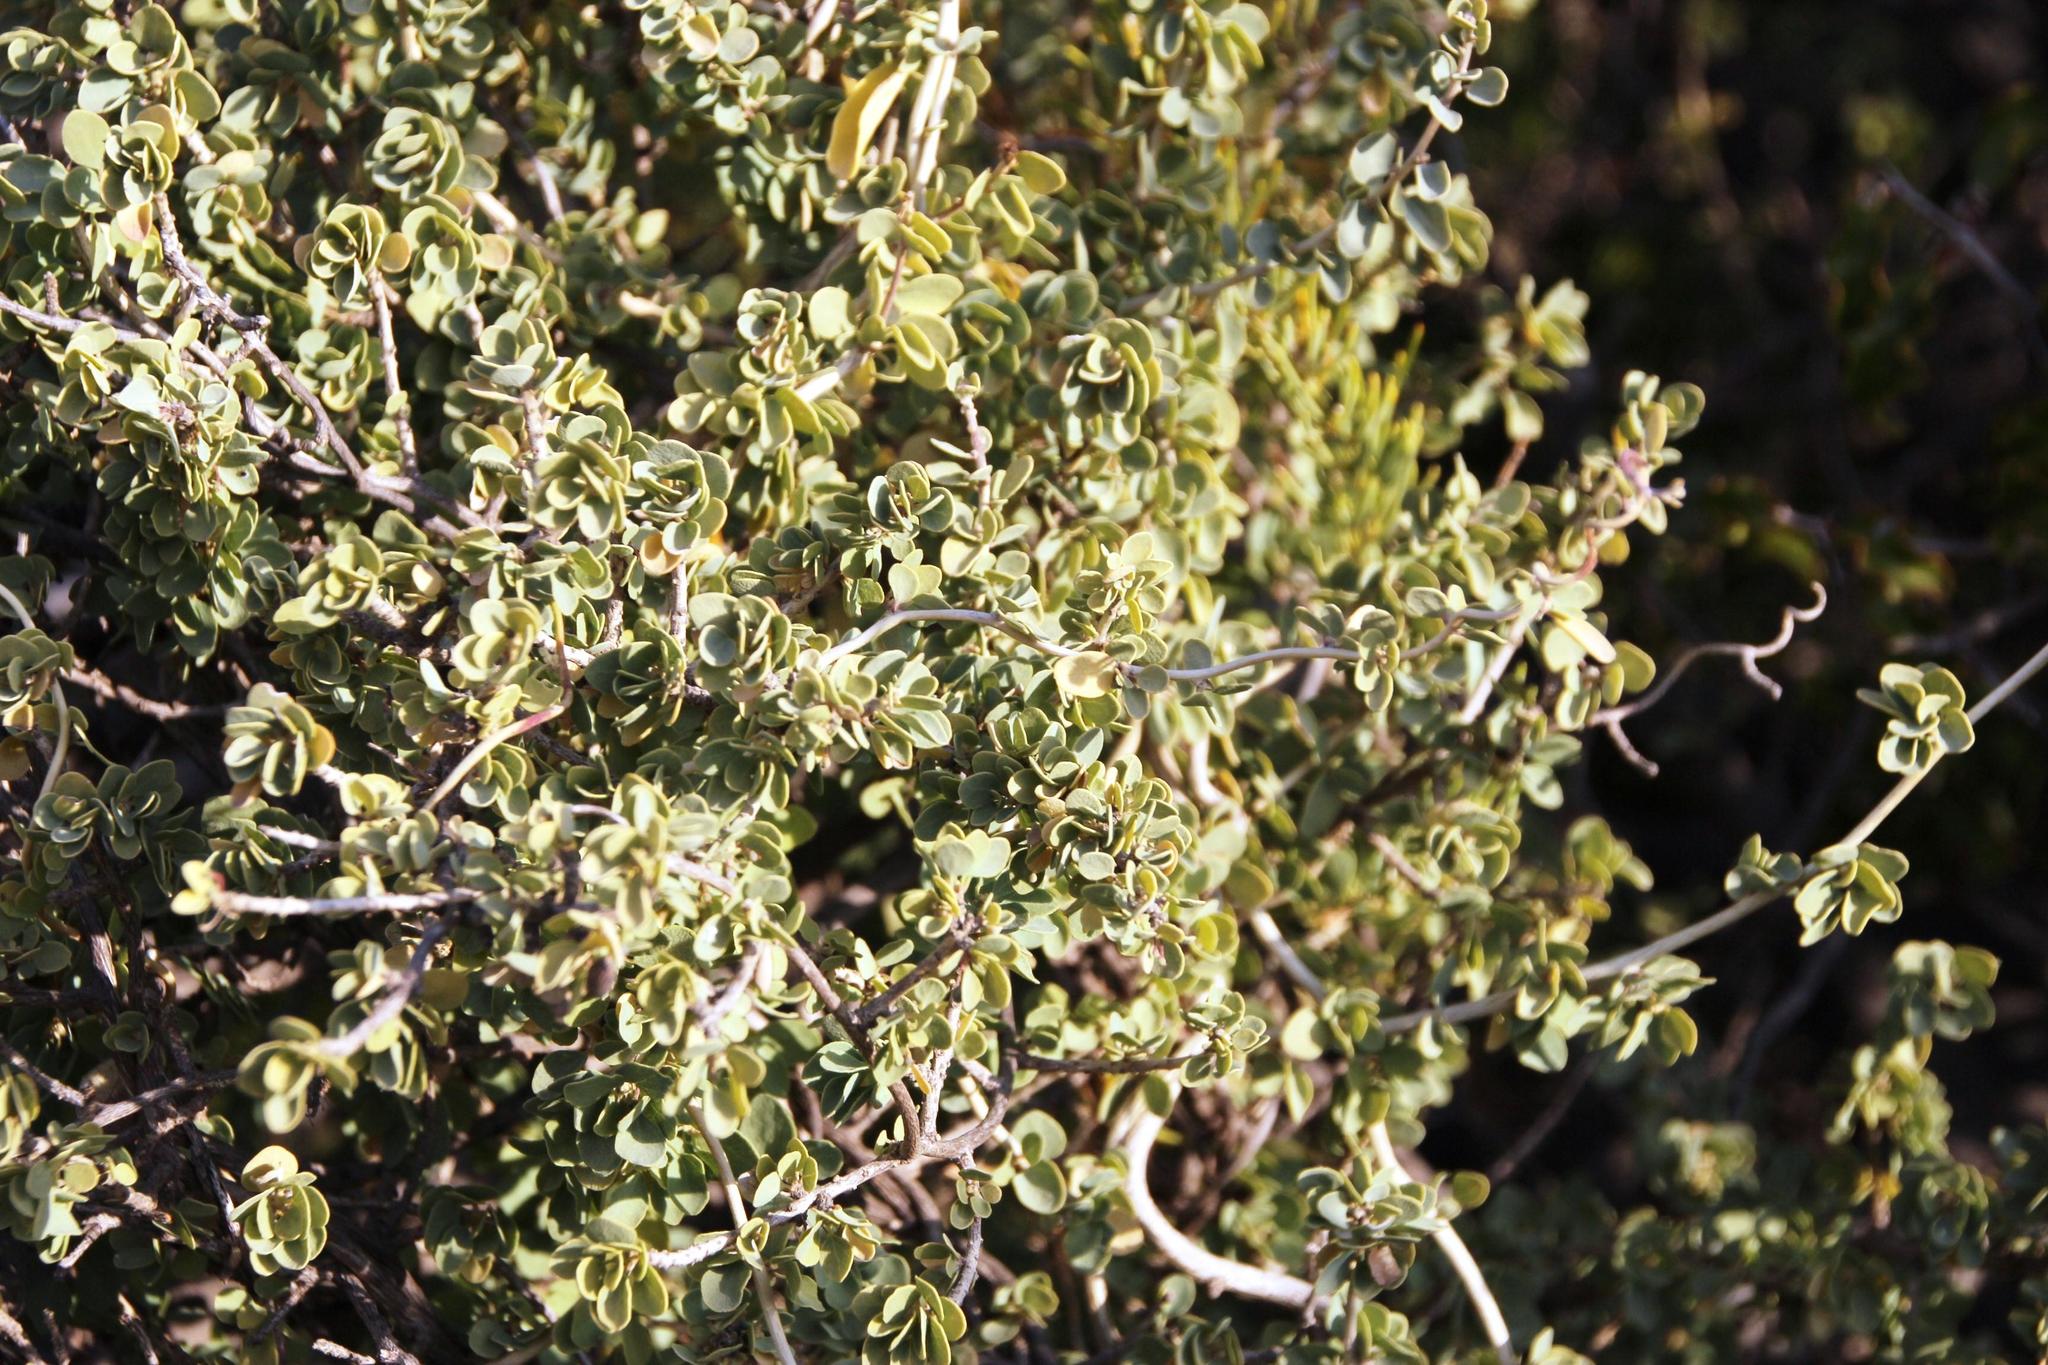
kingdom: Plantae
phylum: Tracheophyta
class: Magnoliopsida
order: Ranunculales
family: Menispermaceae
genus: Cissampelos
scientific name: Cissampelos capensis
